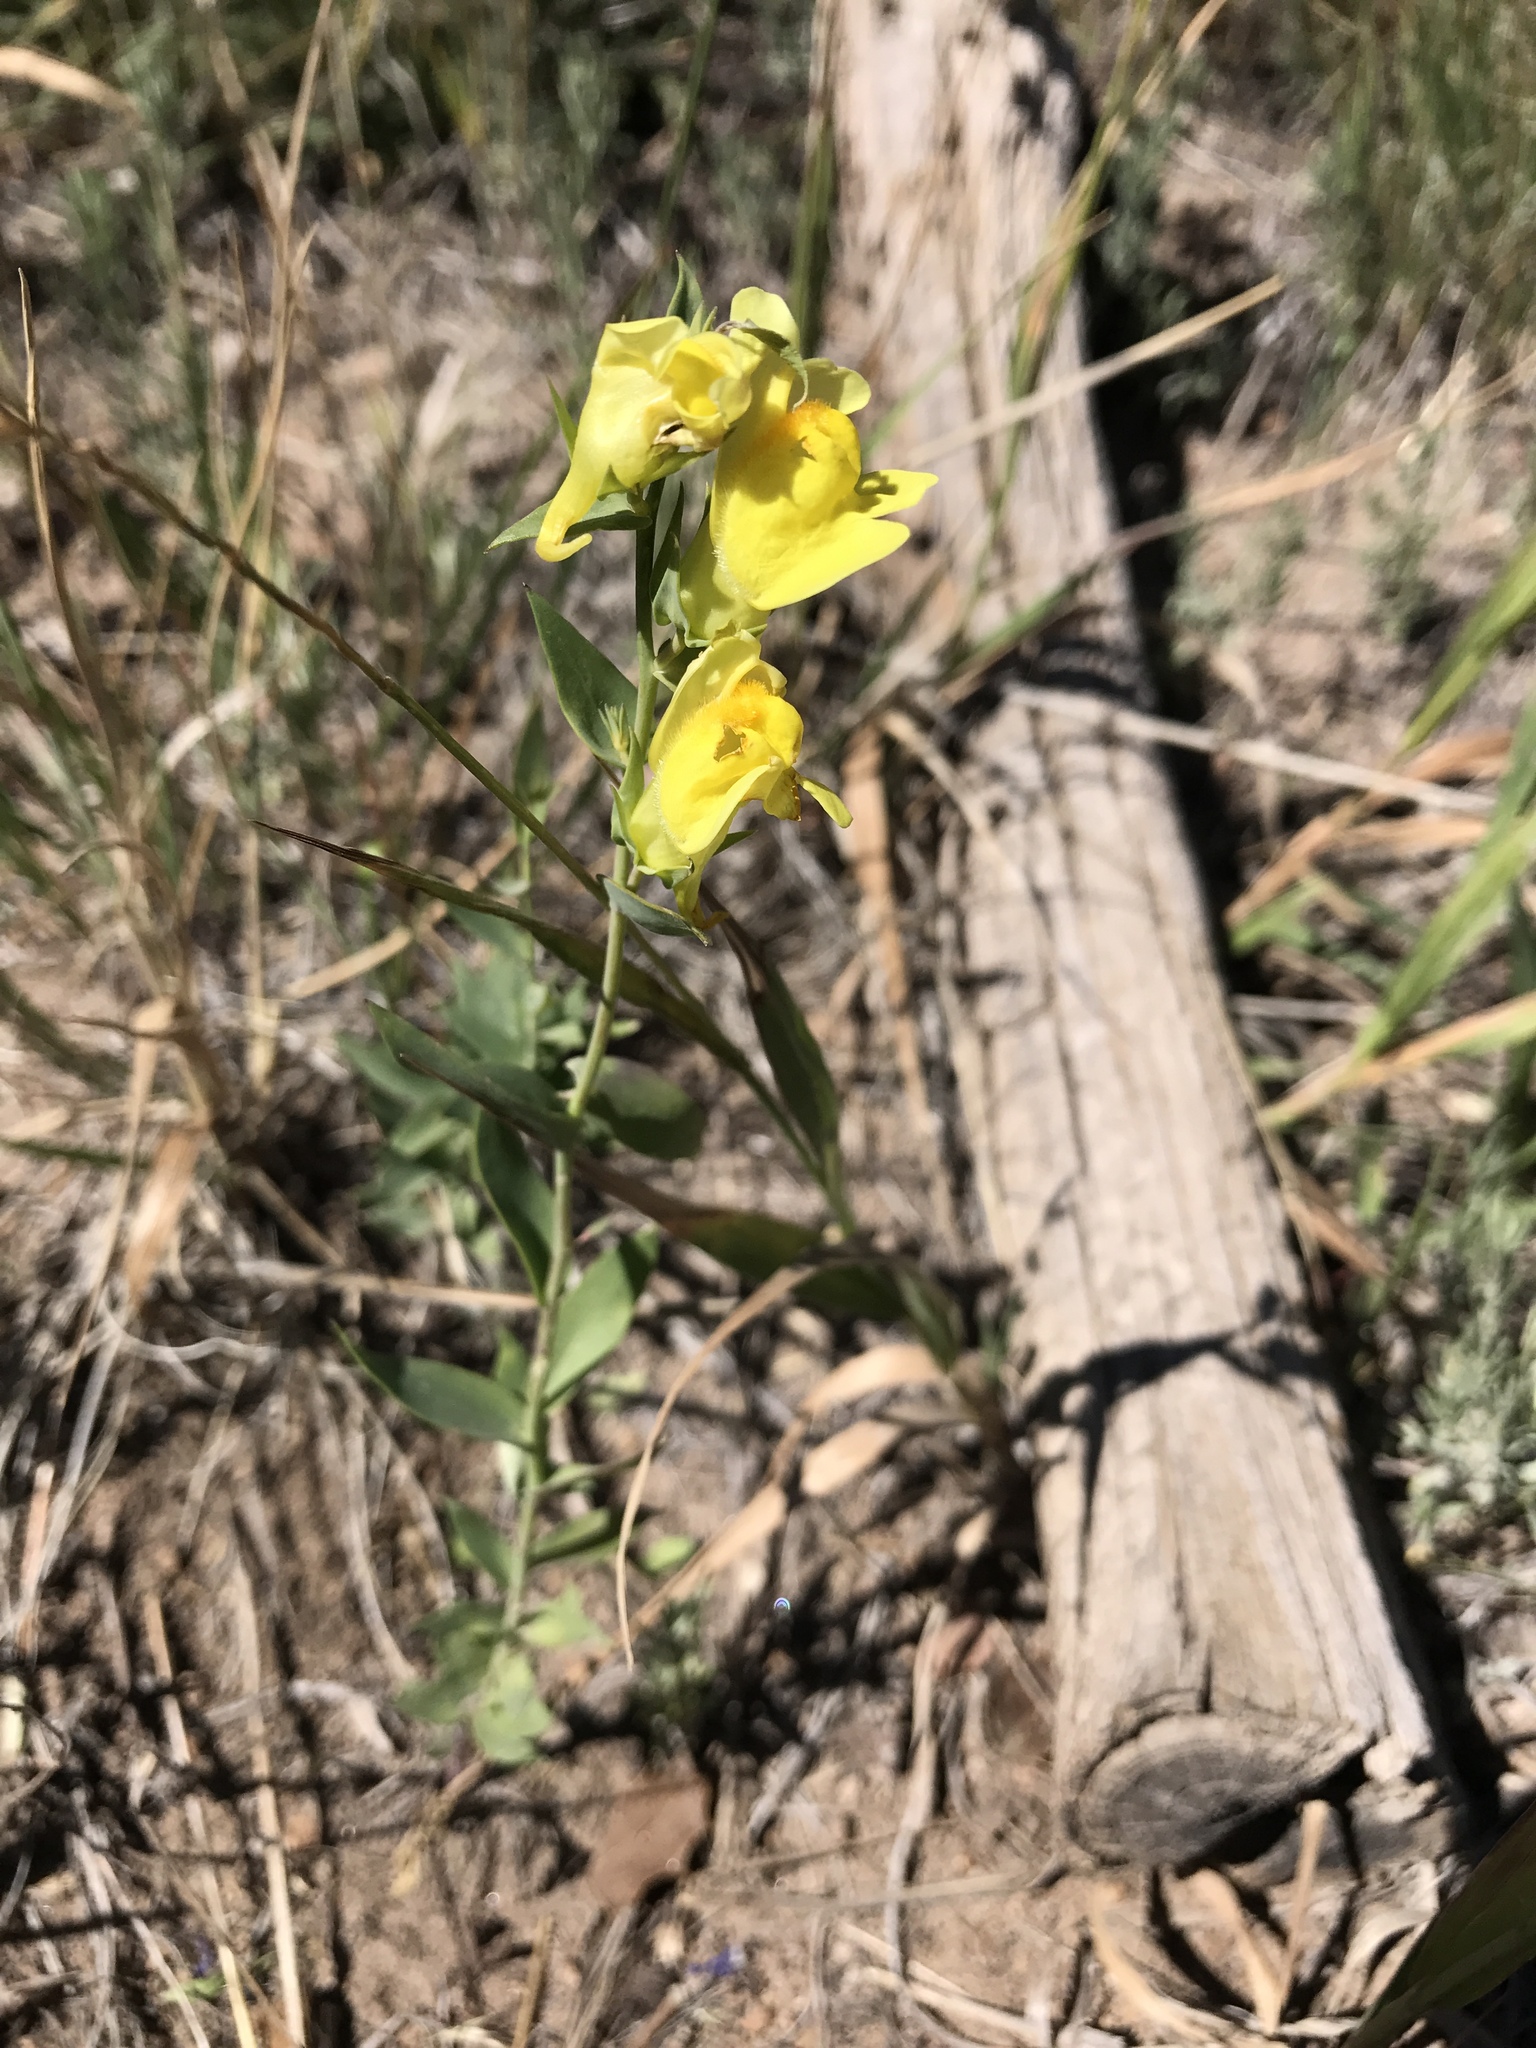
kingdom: Plantae
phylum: Tracheophyta
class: Magnoliopsida
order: Lamiales
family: Plantaginaceae
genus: Linaria
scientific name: Linaria dalmatica
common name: Dalmatian toadflax
